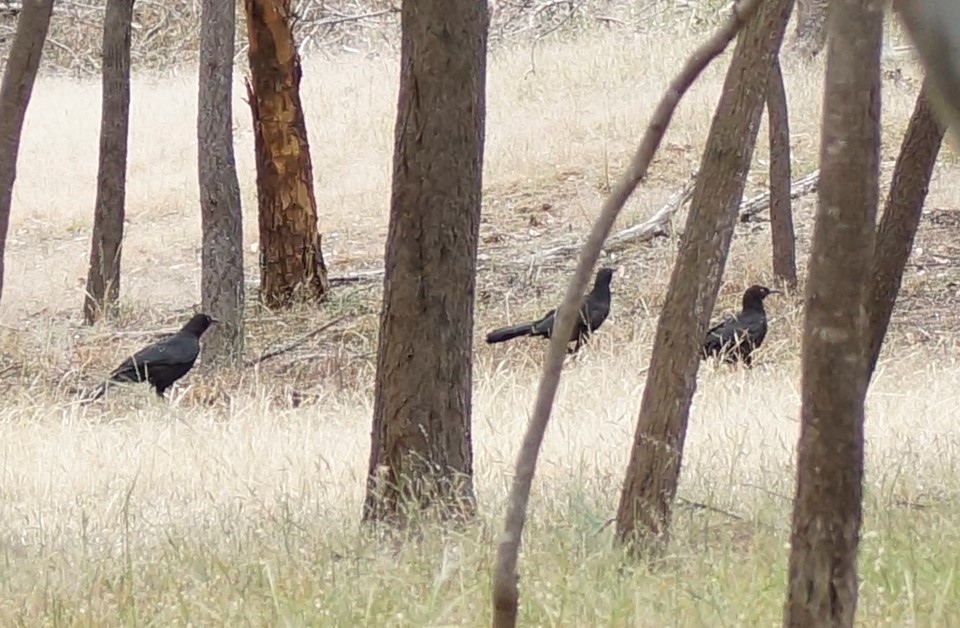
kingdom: Animalia
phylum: Chordata
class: Aves
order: Passeriformes
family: Corcoracidae
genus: Corcorax
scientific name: Corcorax melanoramphos
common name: White-winged chough
